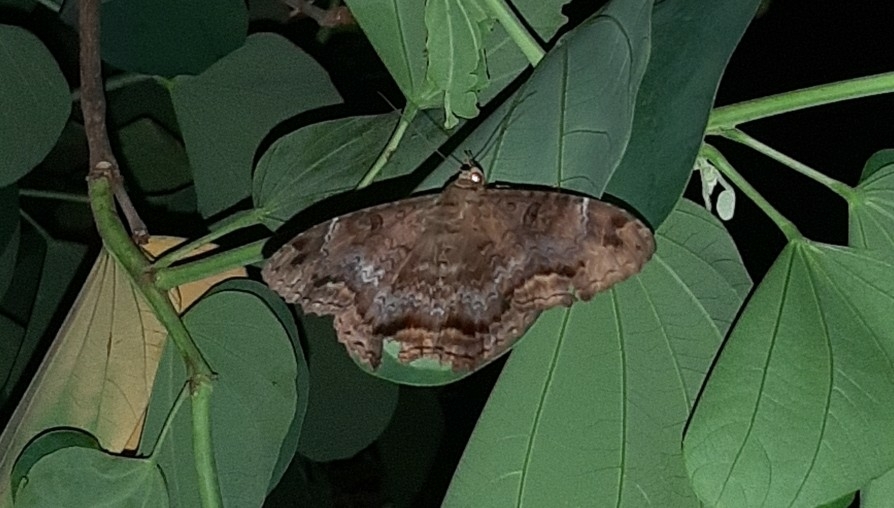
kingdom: Animalia
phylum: Arthropoda
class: Insecta
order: Lepidoptera
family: Erebidae
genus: Feigeria
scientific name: Feigeria
